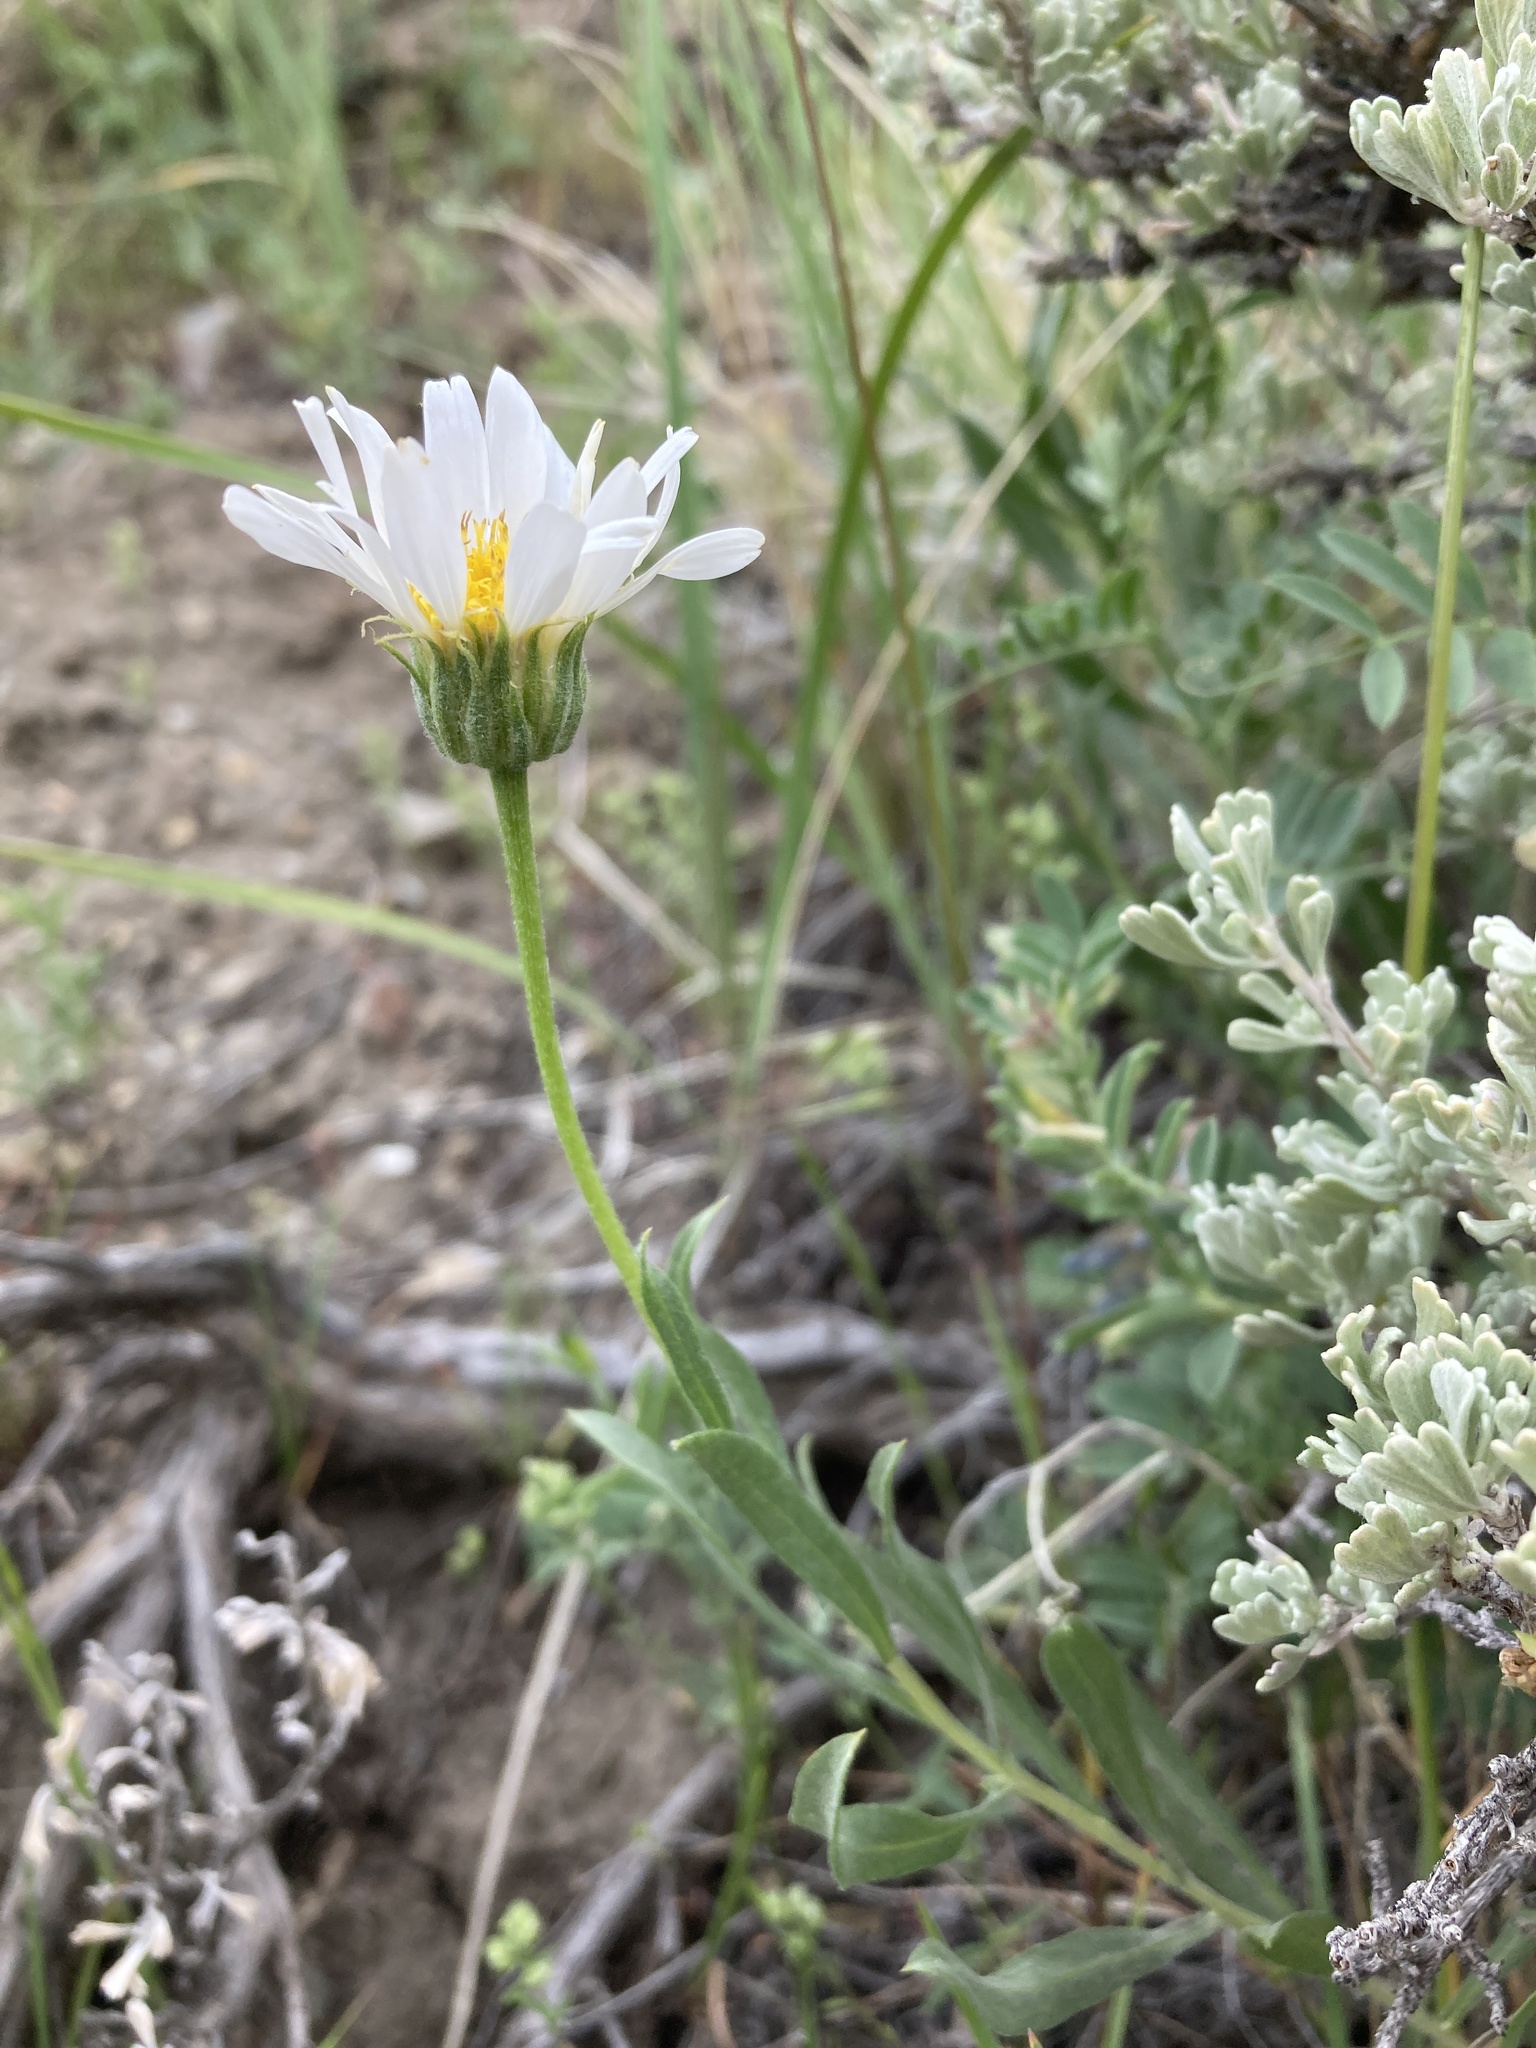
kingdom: Plantae
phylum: Tracheophyta
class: Magnoliopsida
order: Asterales
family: Asteraceae
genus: Xylorhiza
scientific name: Xylorhiza glabriuscula
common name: Smooth woody-aster
